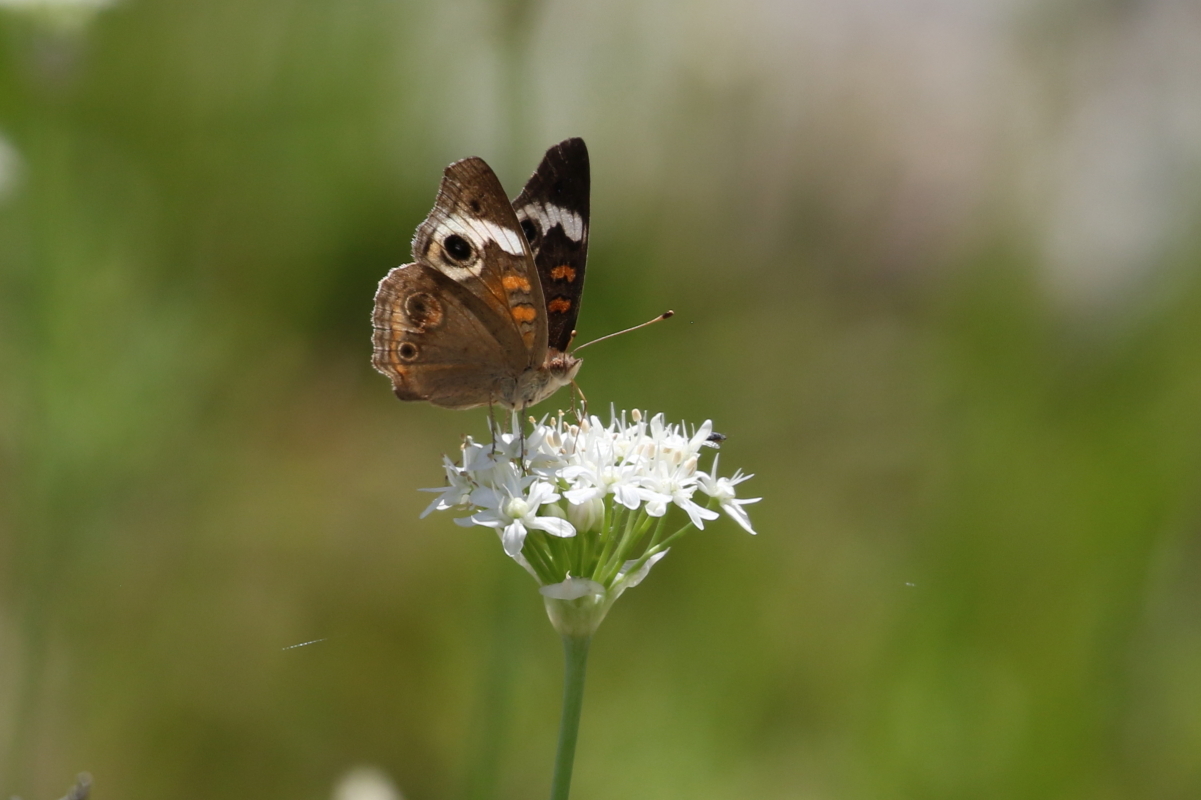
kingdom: Animalia
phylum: Arthropoda
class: Insecta
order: Lepidoptera
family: Nymphalidae
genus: Junonia
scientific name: Junonia coenia
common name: Common buckeye
